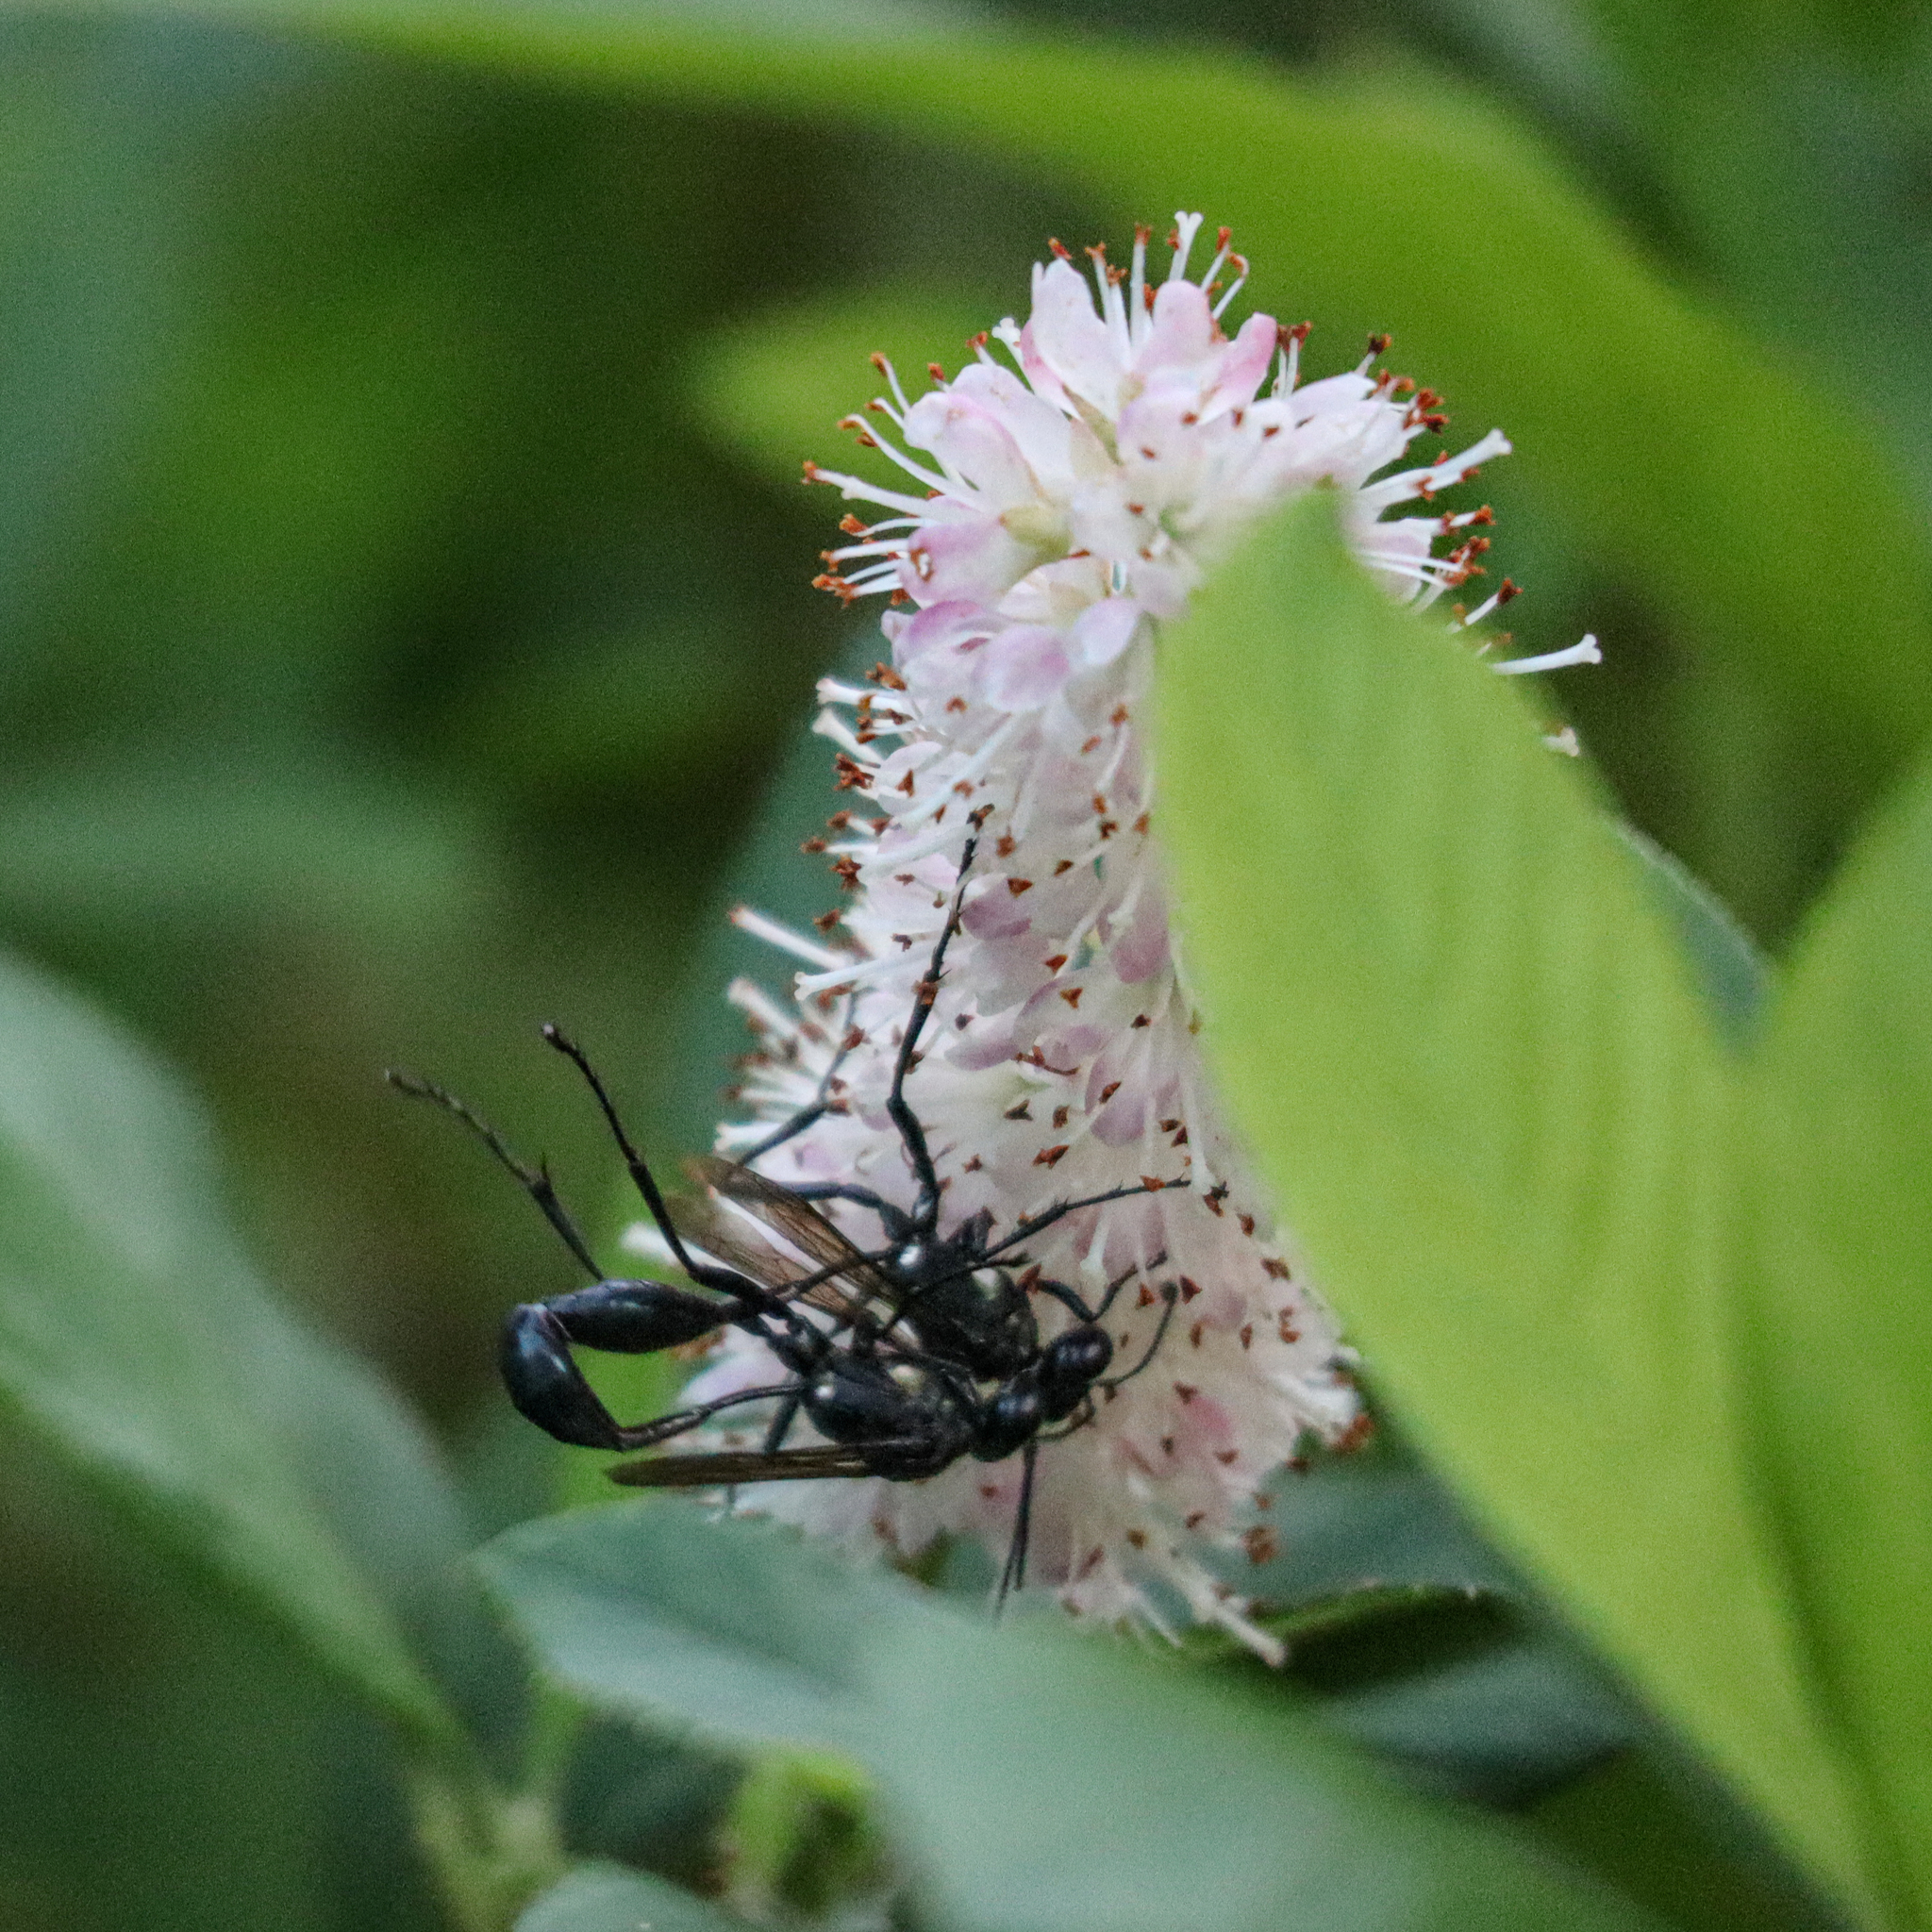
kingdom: Animalia
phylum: Arthropoda
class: Insecta
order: Hymenoptera
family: Sphecidae
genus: Eremnophila
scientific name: Eremnophila aureonotata
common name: Gold-marked thread-waisted wasp
